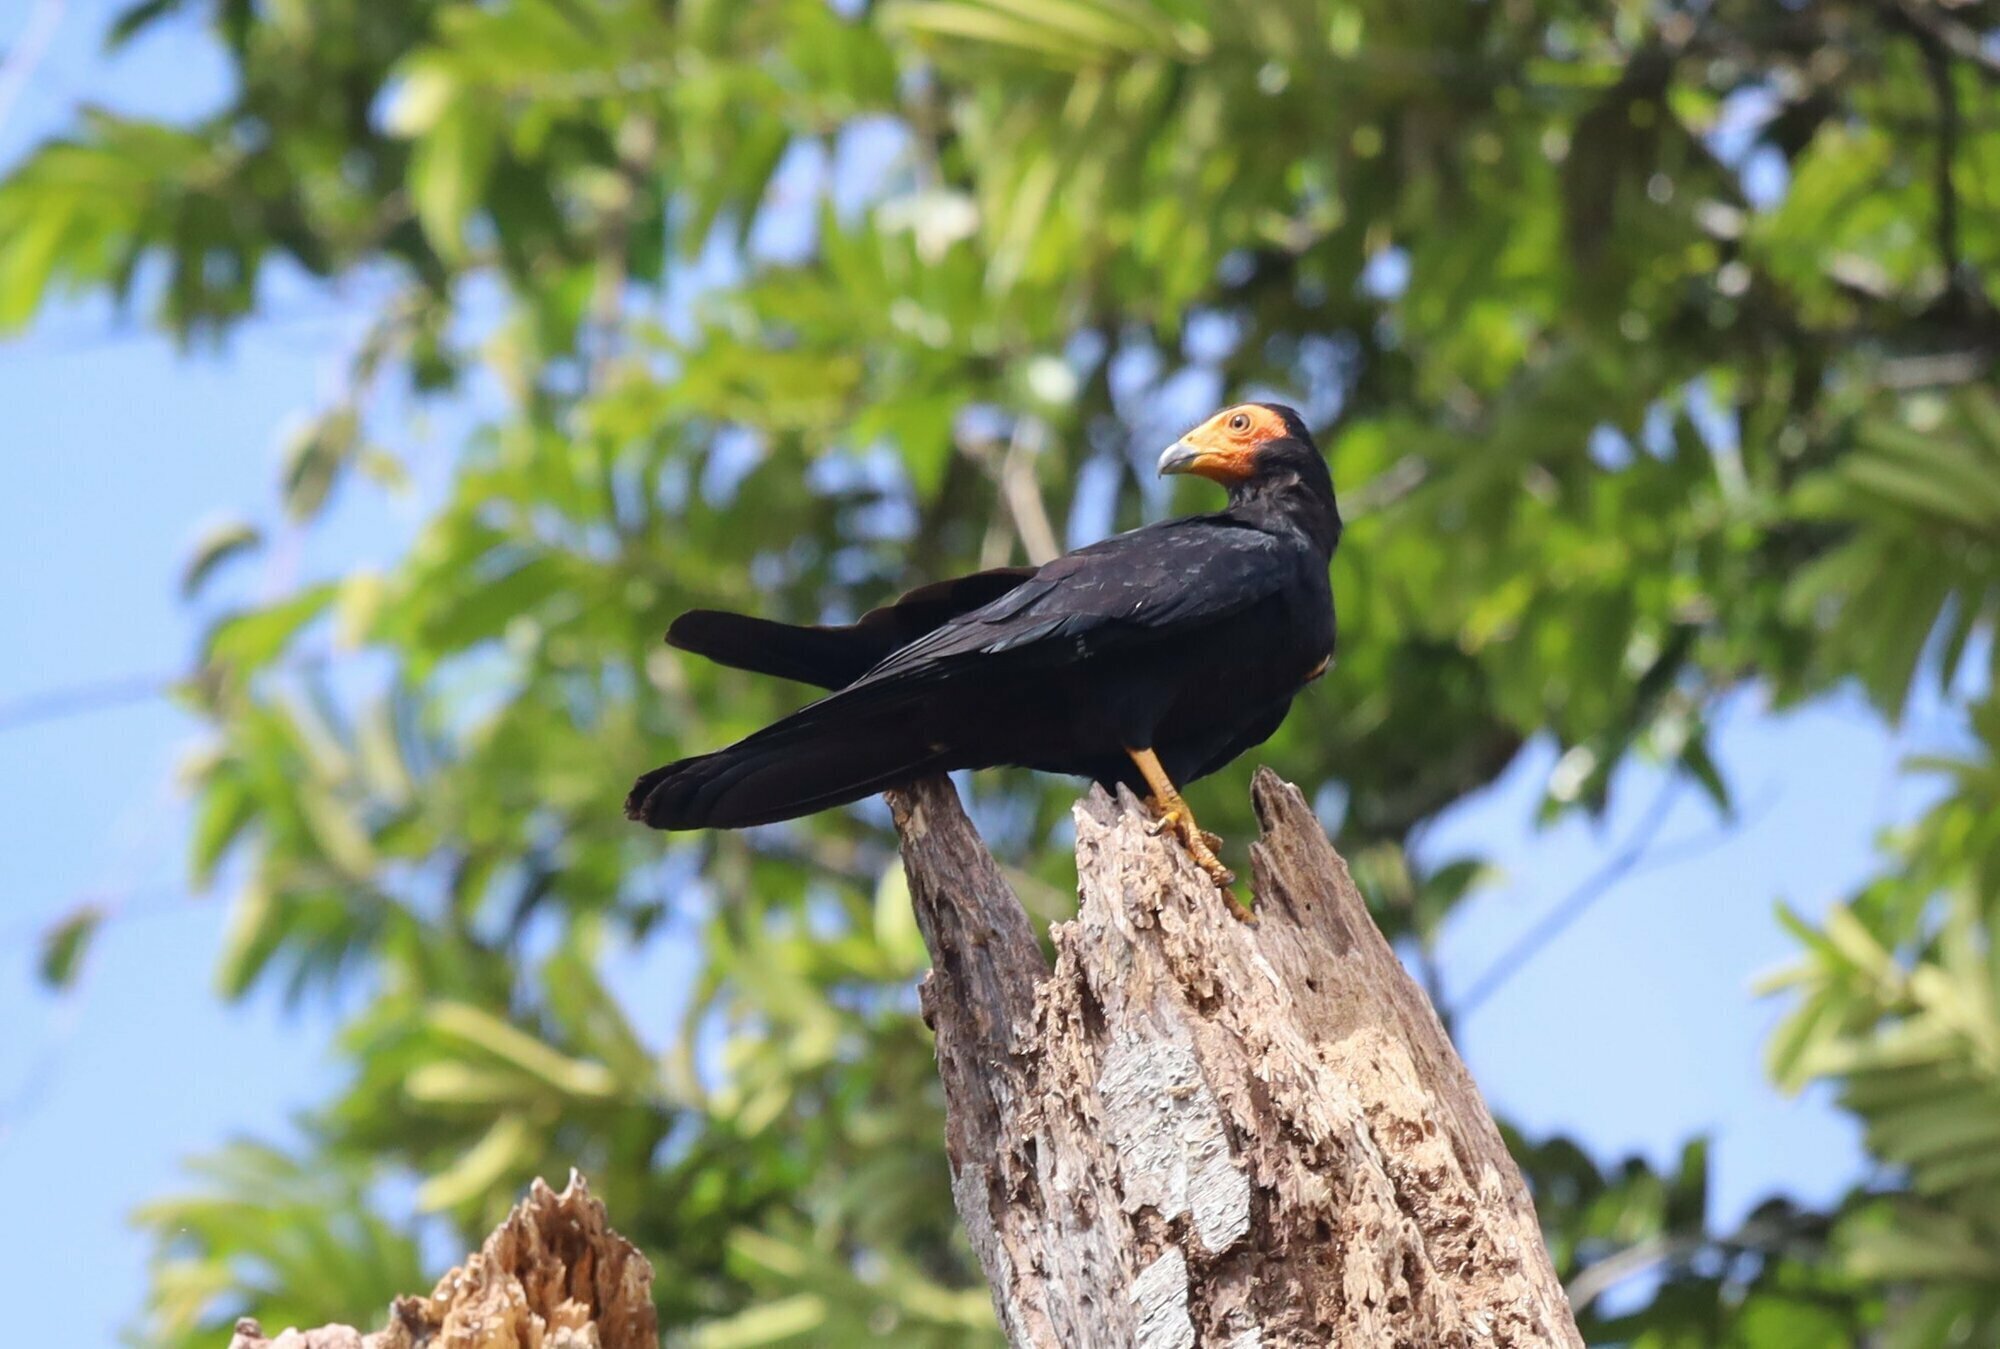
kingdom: Animalia
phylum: Chordata
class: Aves
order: Falconiformes
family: Falconidae
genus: Daptrius
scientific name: Daptrius ater
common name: Black caracara
